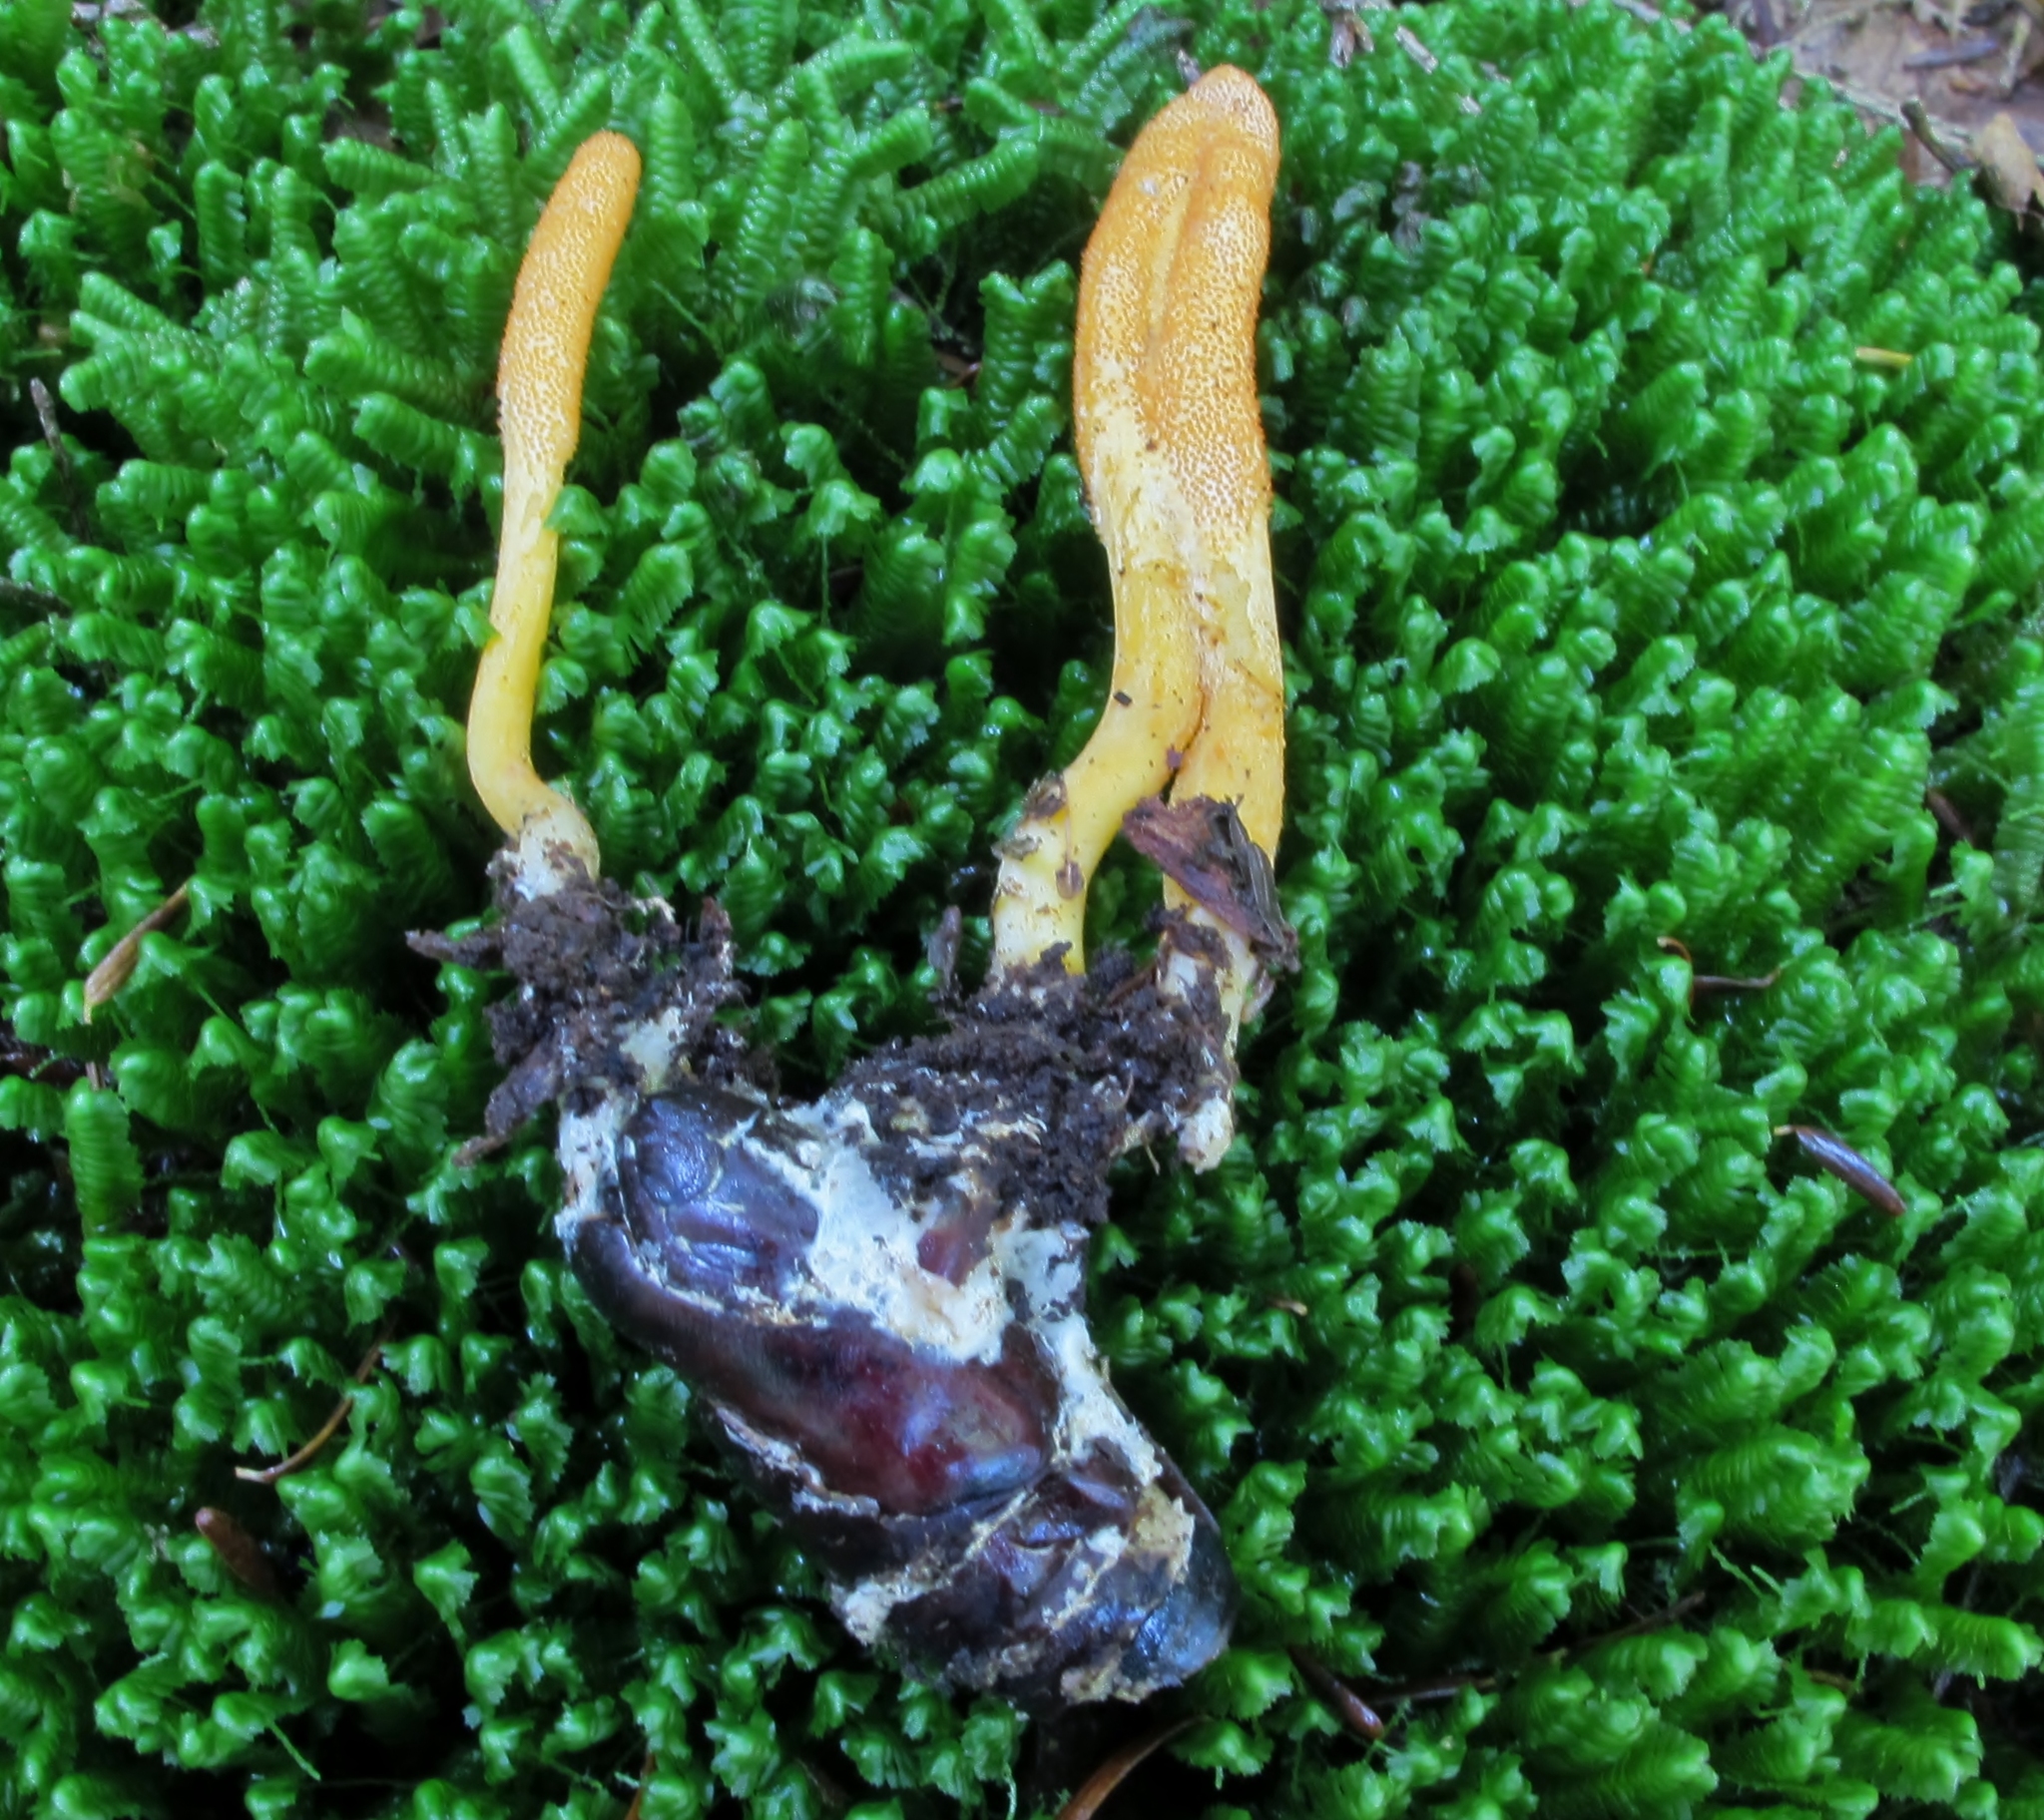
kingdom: Fungi
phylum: Ascomycota
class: Sordariomycetes
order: Hypocreales
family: Cordycipitaceae
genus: Cordyceps
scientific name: Cordyceps militaris
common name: Scarlet caterpillar fungus
